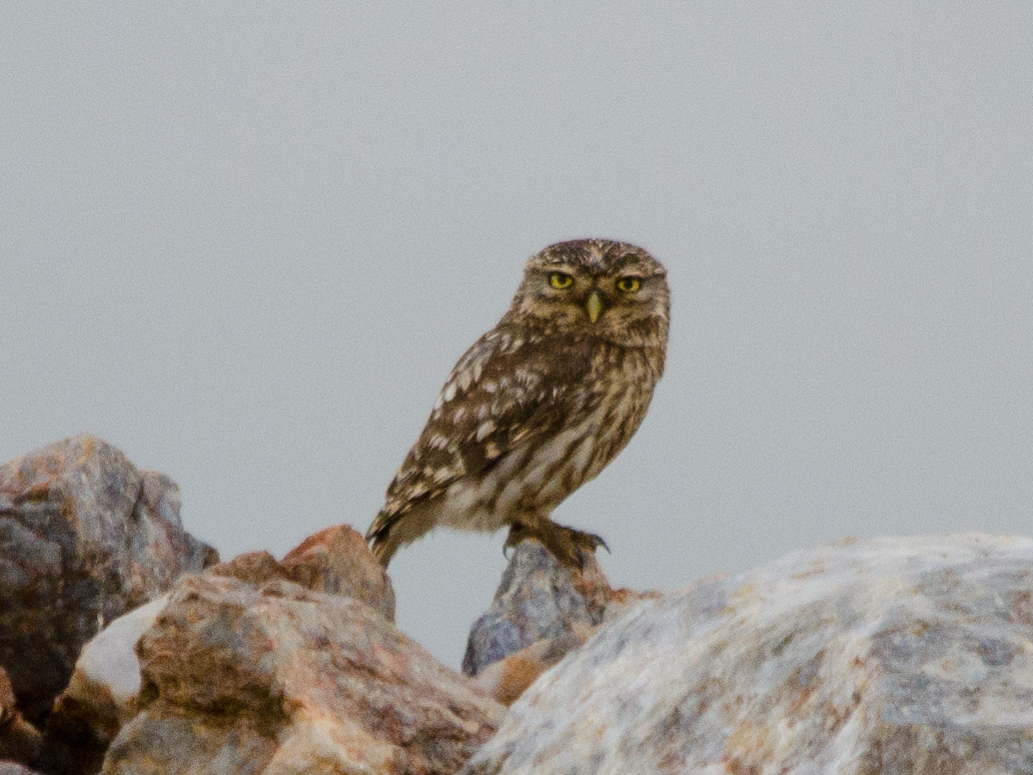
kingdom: Animalia
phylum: Chordata
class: Aves
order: Strigiformes
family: Strigidae
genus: Athene
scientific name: Athene noctua
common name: Little owl
